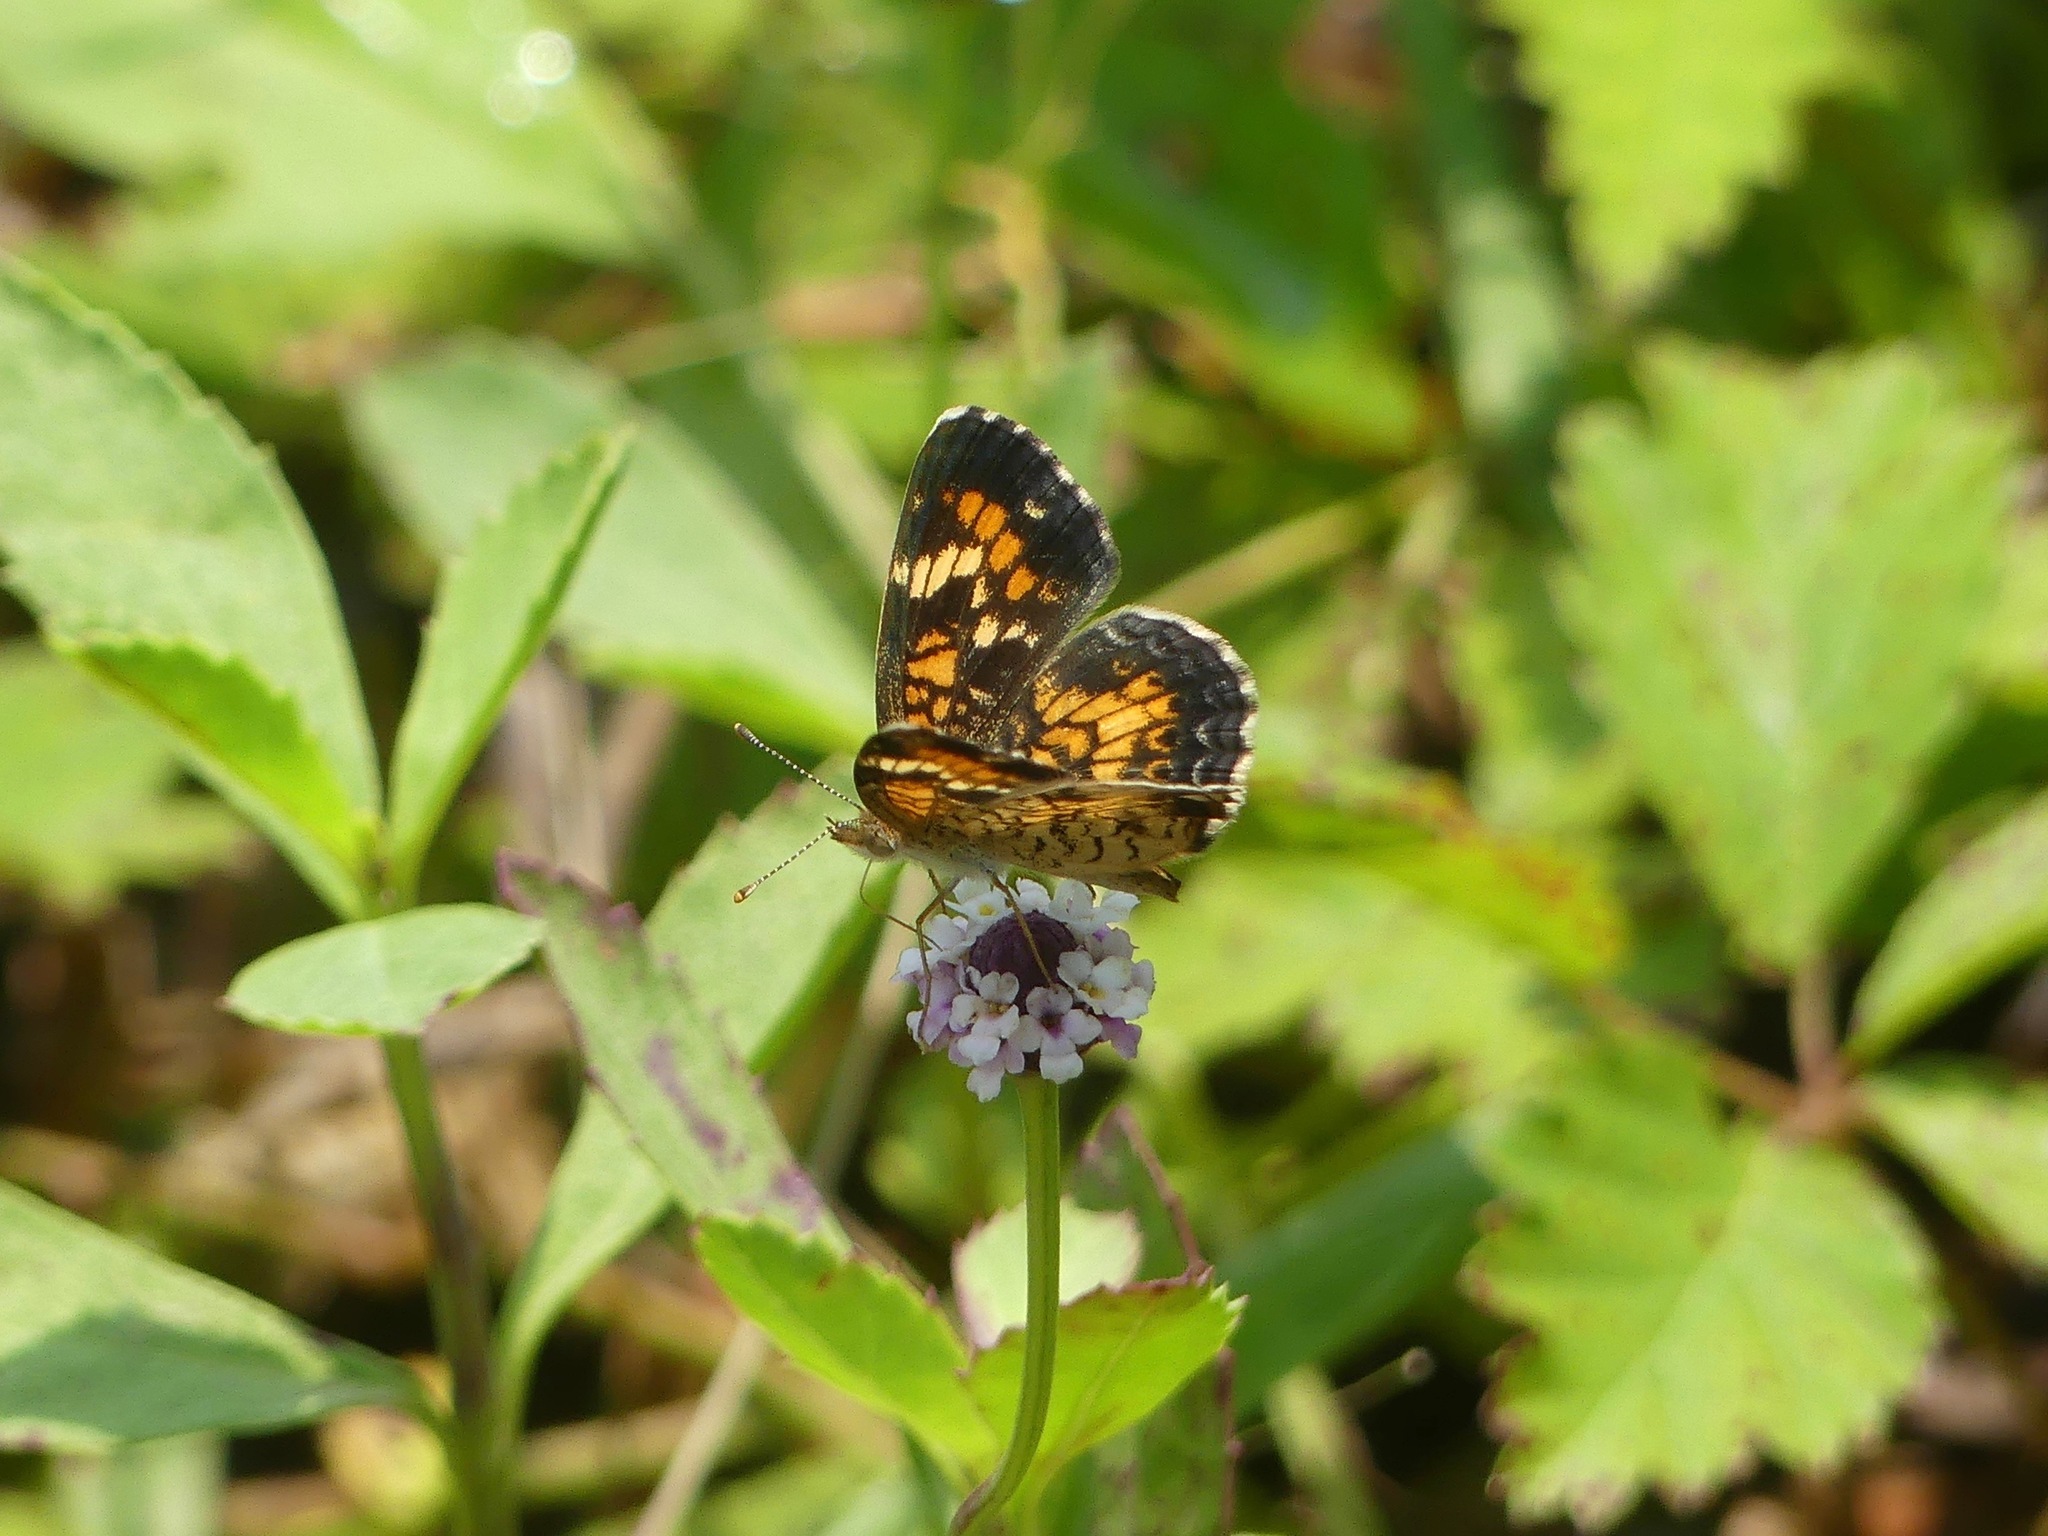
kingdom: Animalia
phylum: Arthropoda
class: Insecta
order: Lepidoptera
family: Nymphalidae
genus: Phyciodes
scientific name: Phyciodes phaon
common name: Phaon crescent
